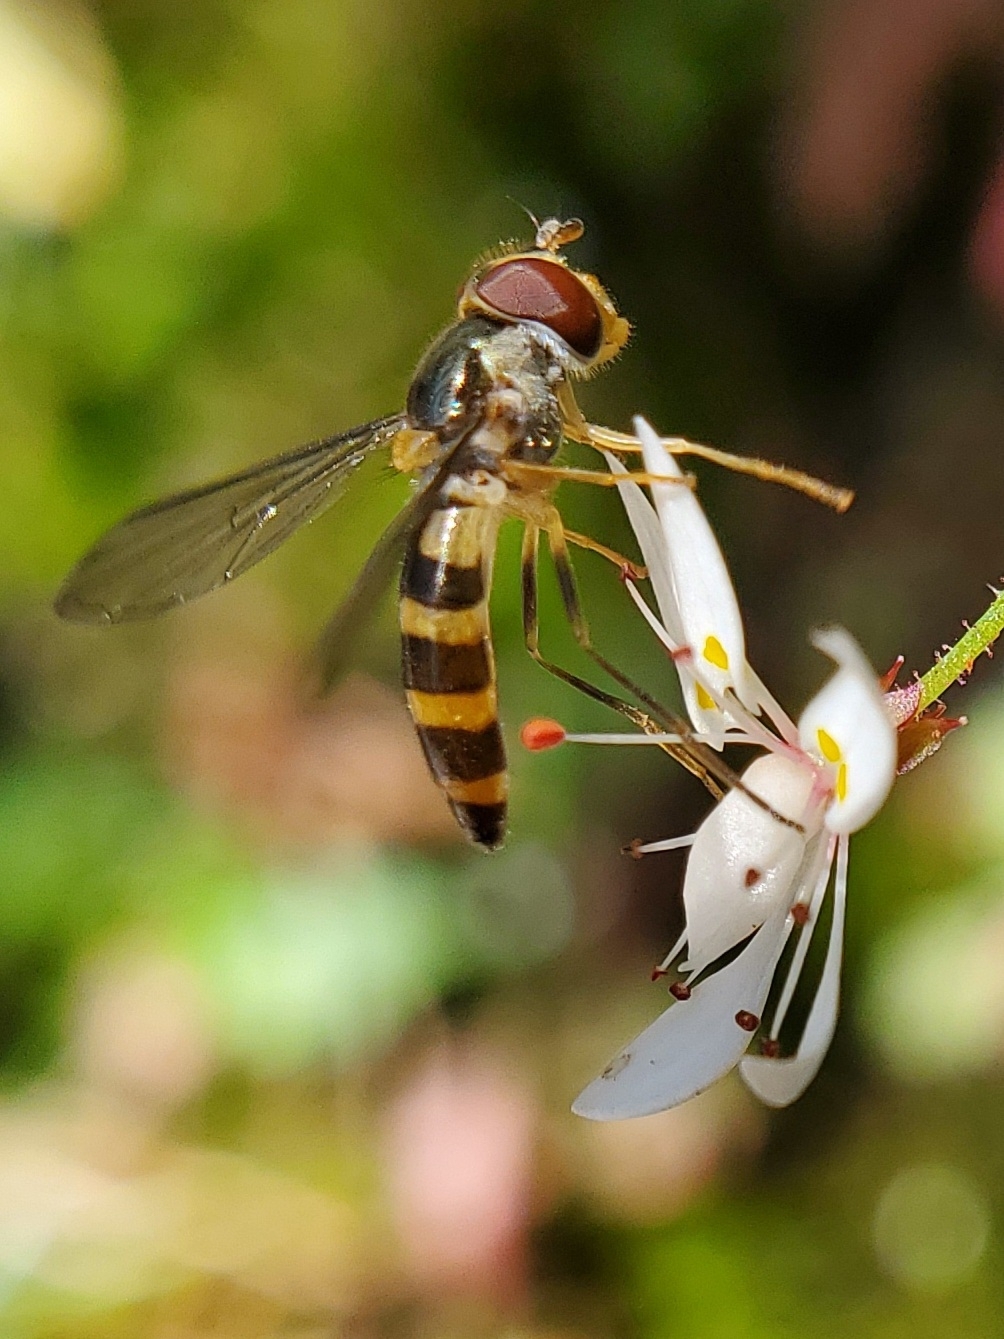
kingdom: Animalia
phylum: Arthropoda
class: Insecta
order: Diptera
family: Syrphidae
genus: Meliscaeva
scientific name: Meliscaeva cinctella
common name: American thintail fly
